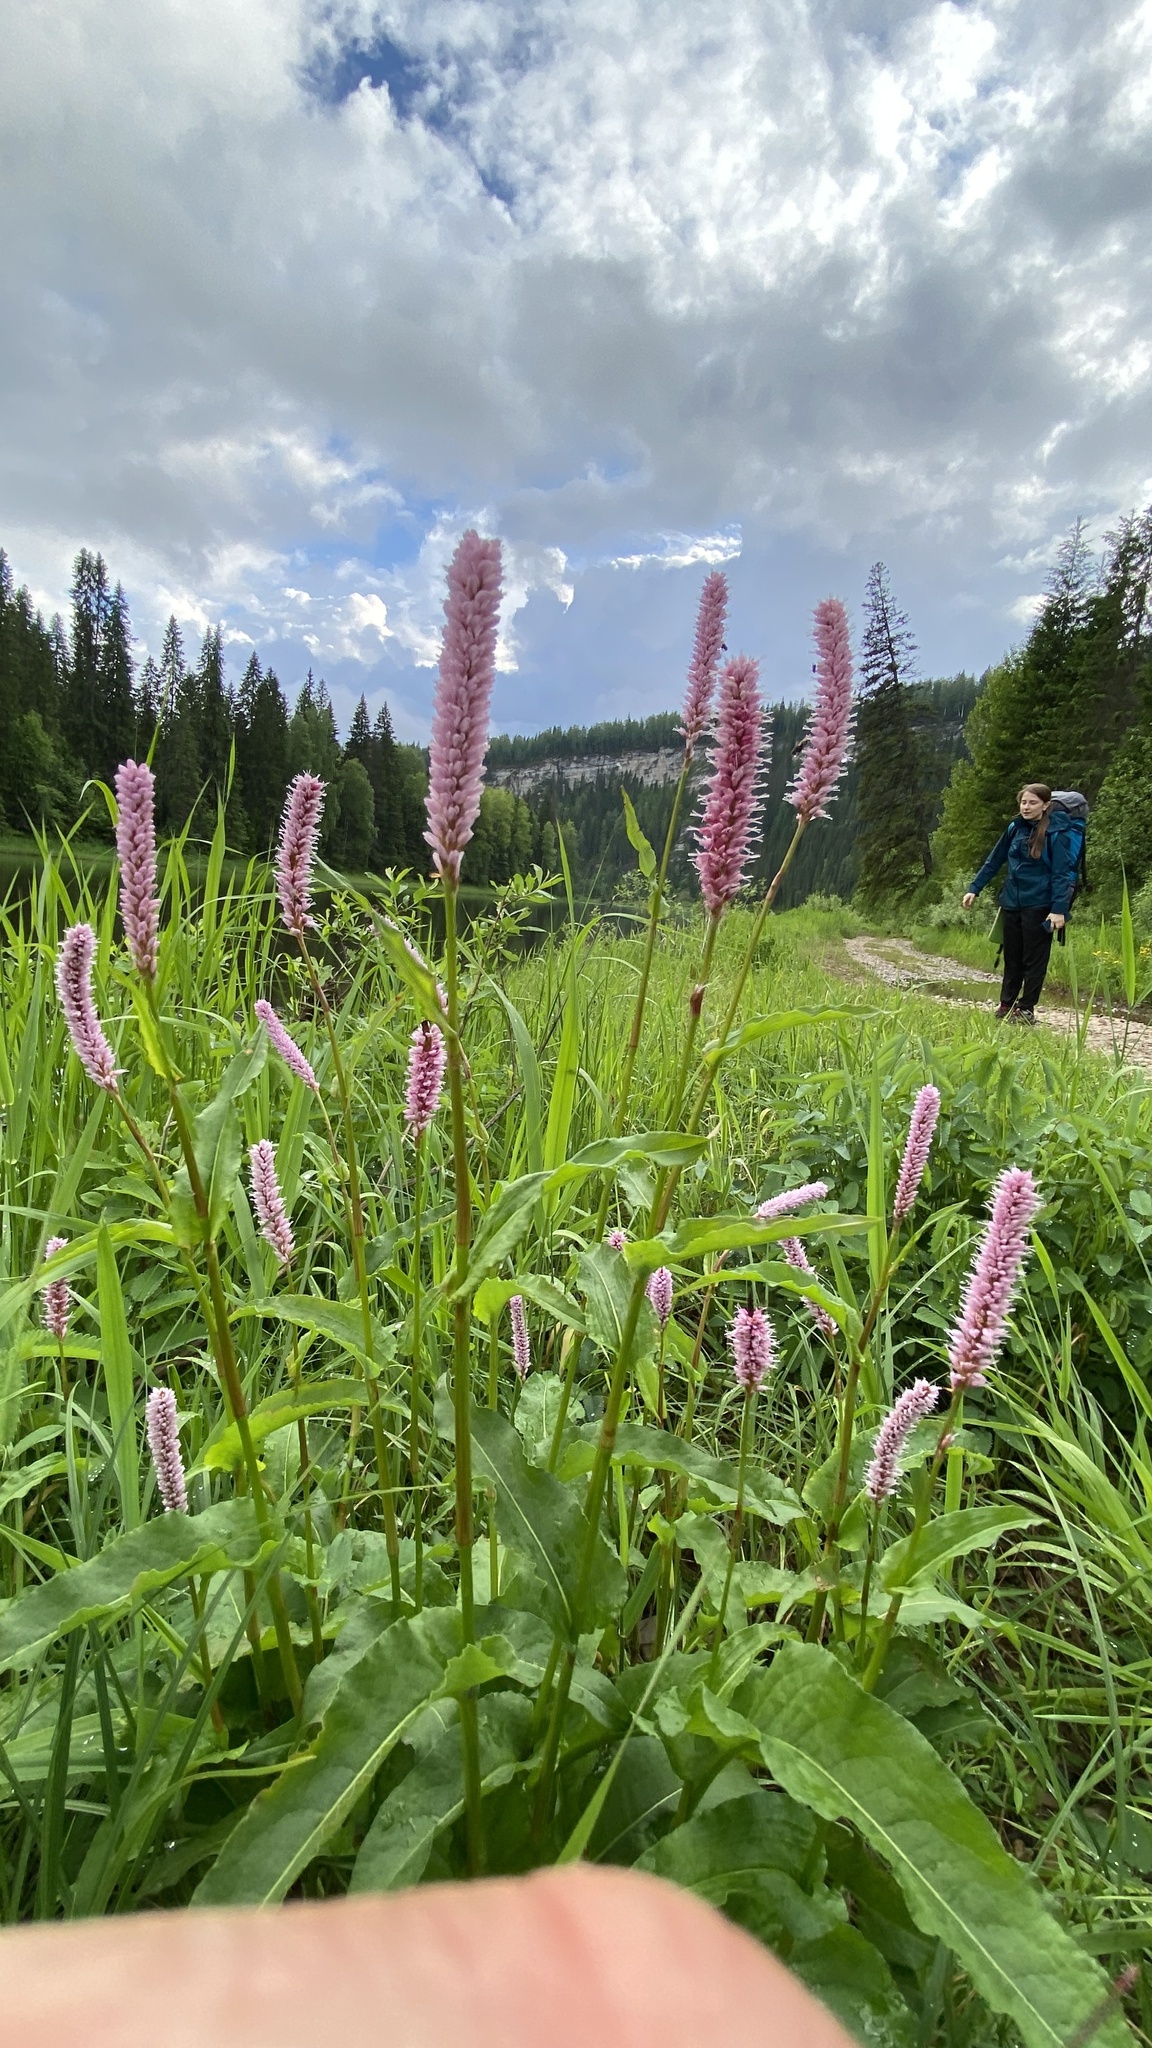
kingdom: Plantae
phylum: Tracheophyta
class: Magnoliopsida
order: Caryophyllales
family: Polygonaceae
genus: Bistorta
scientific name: Bistorta officinalis
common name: Common bistort
